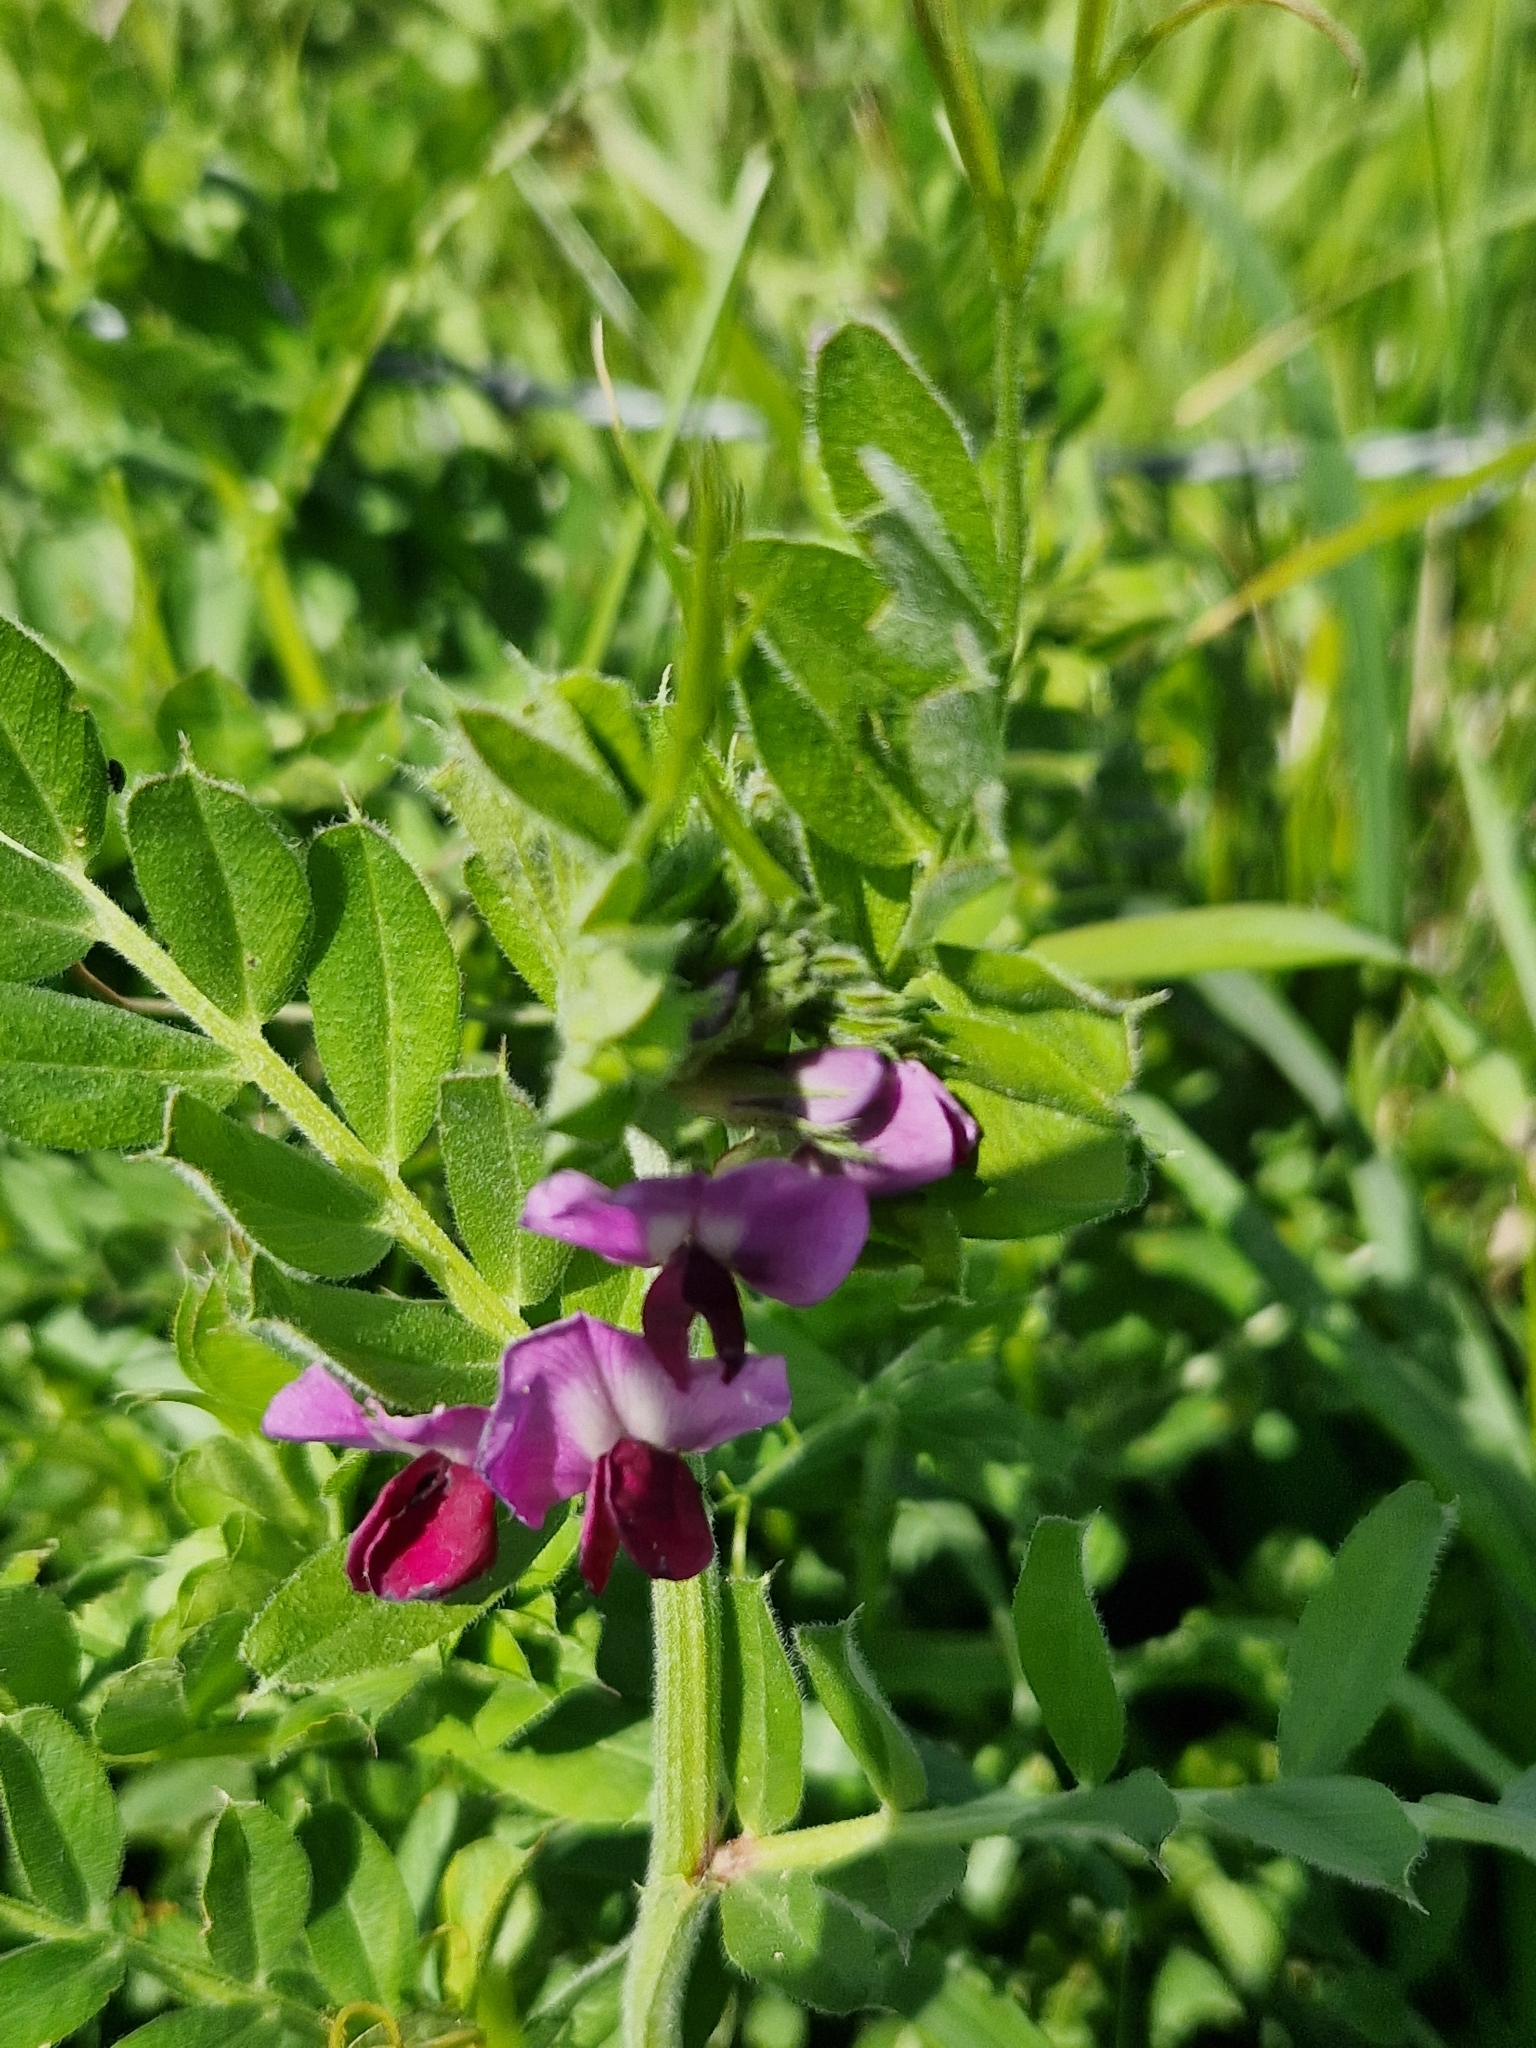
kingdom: Plantae
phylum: Tracheophyta
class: Magnoliopsida
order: Fabales
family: Fabaceae
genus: Vicia
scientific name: Vicia sativa
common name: Garden vetch
